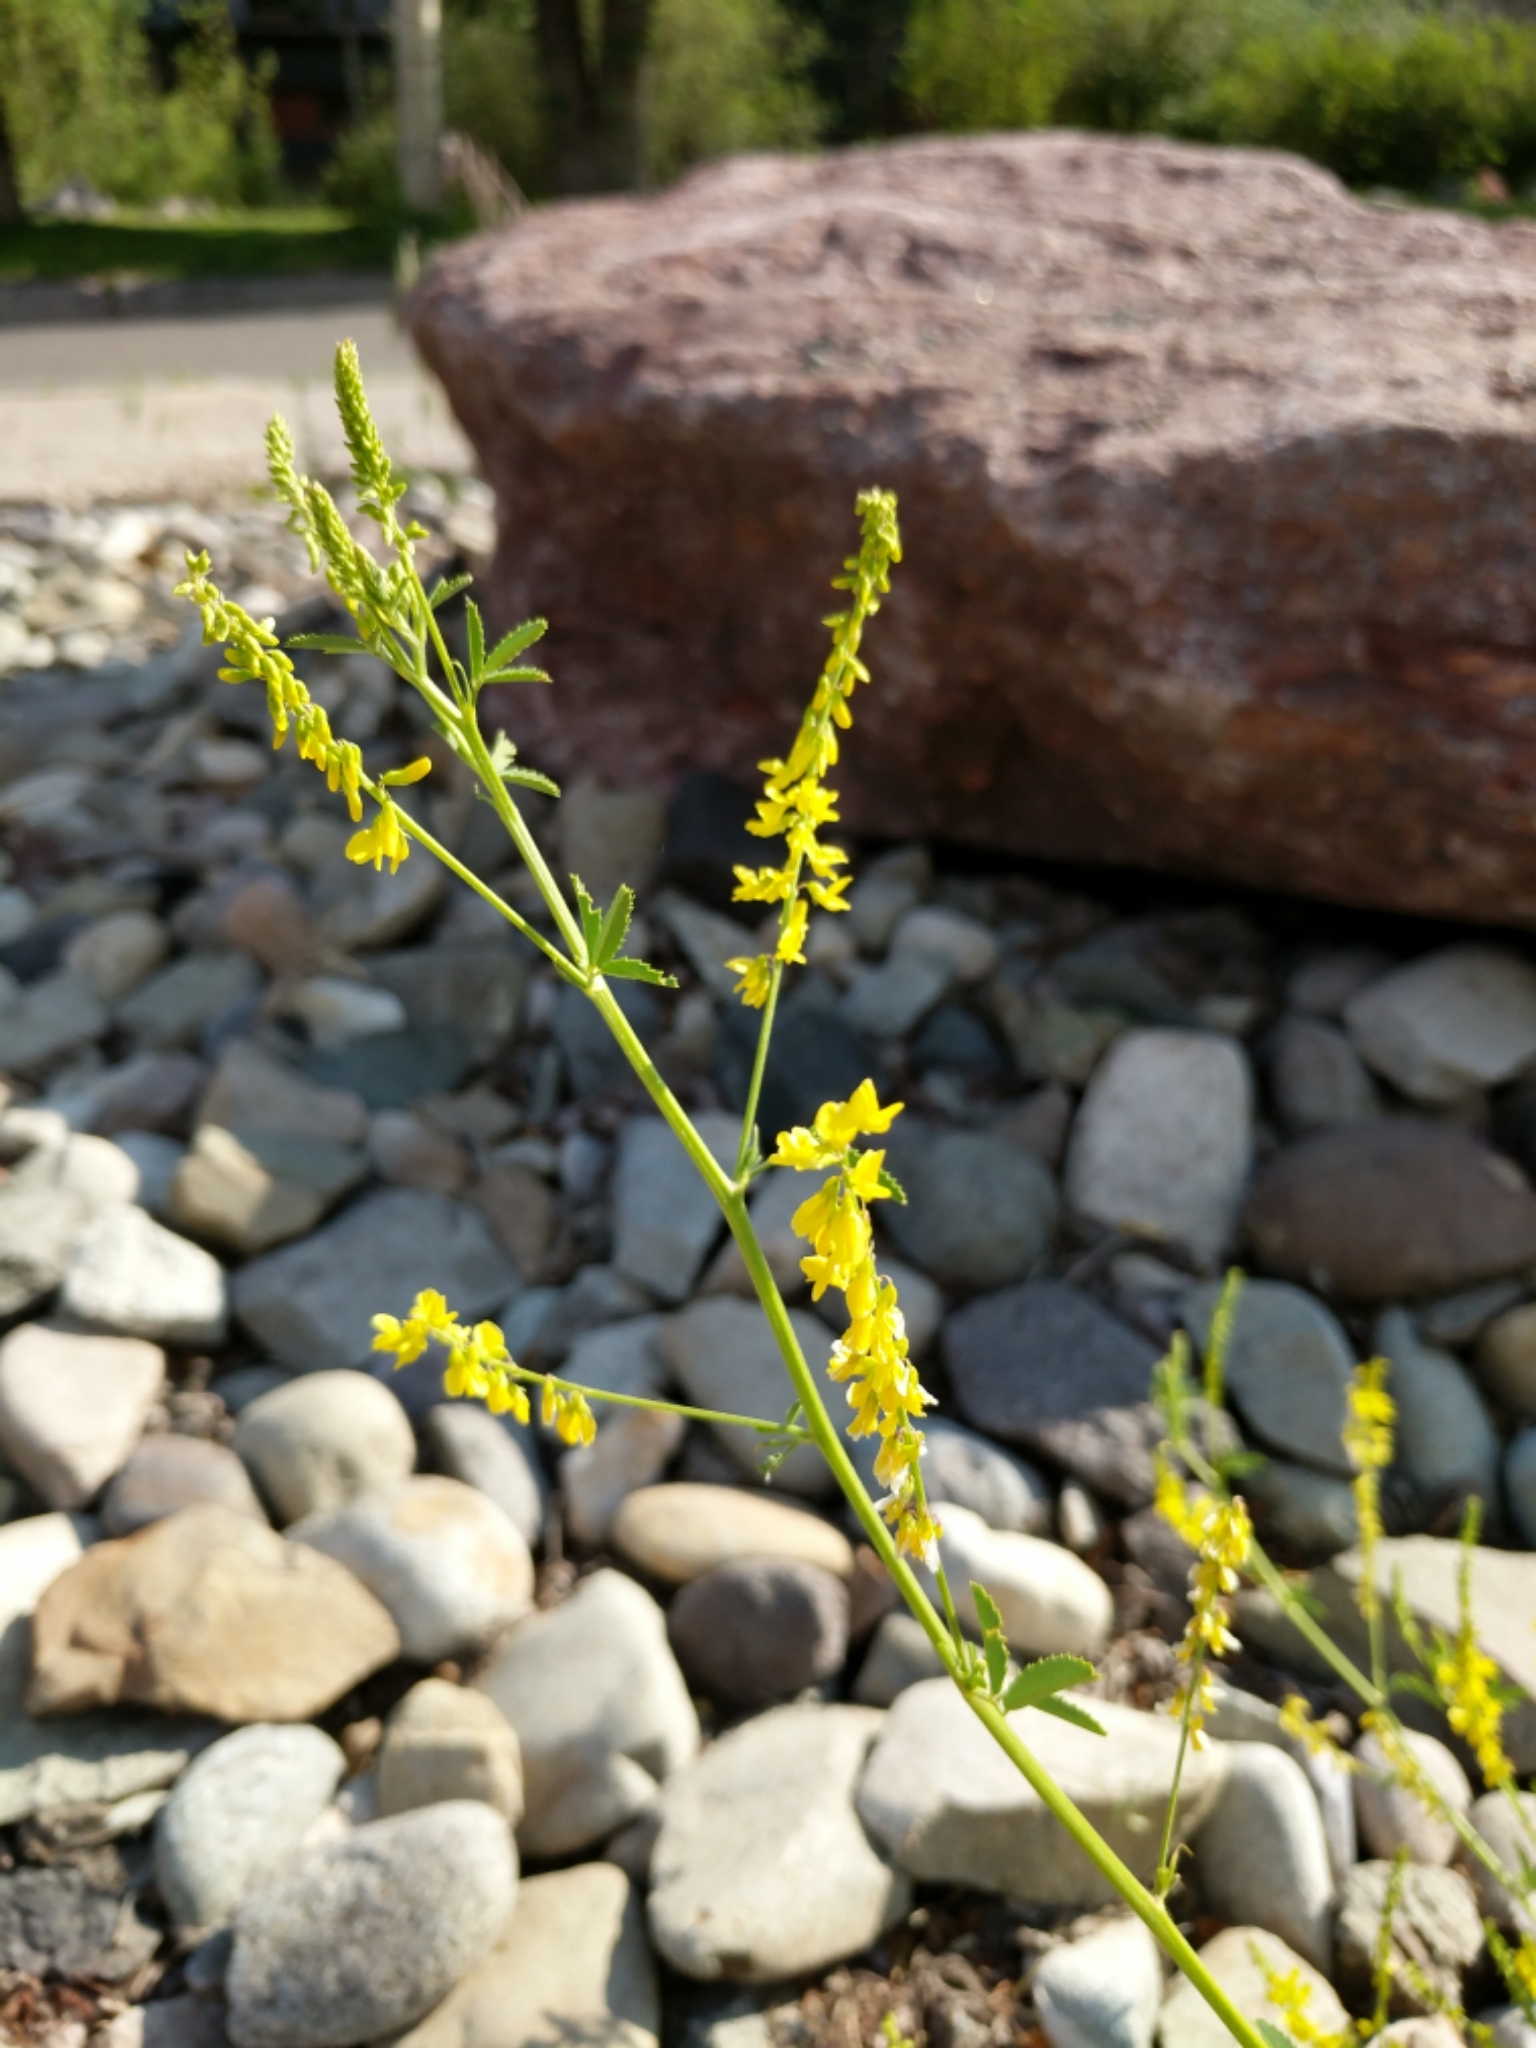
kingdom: Plantae
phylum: Tracheophyta
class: Magnoliopsida
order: Fabales
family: Fabaceae
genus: Melilotus
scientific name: Melilotus officinalis
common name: Sweetclover
